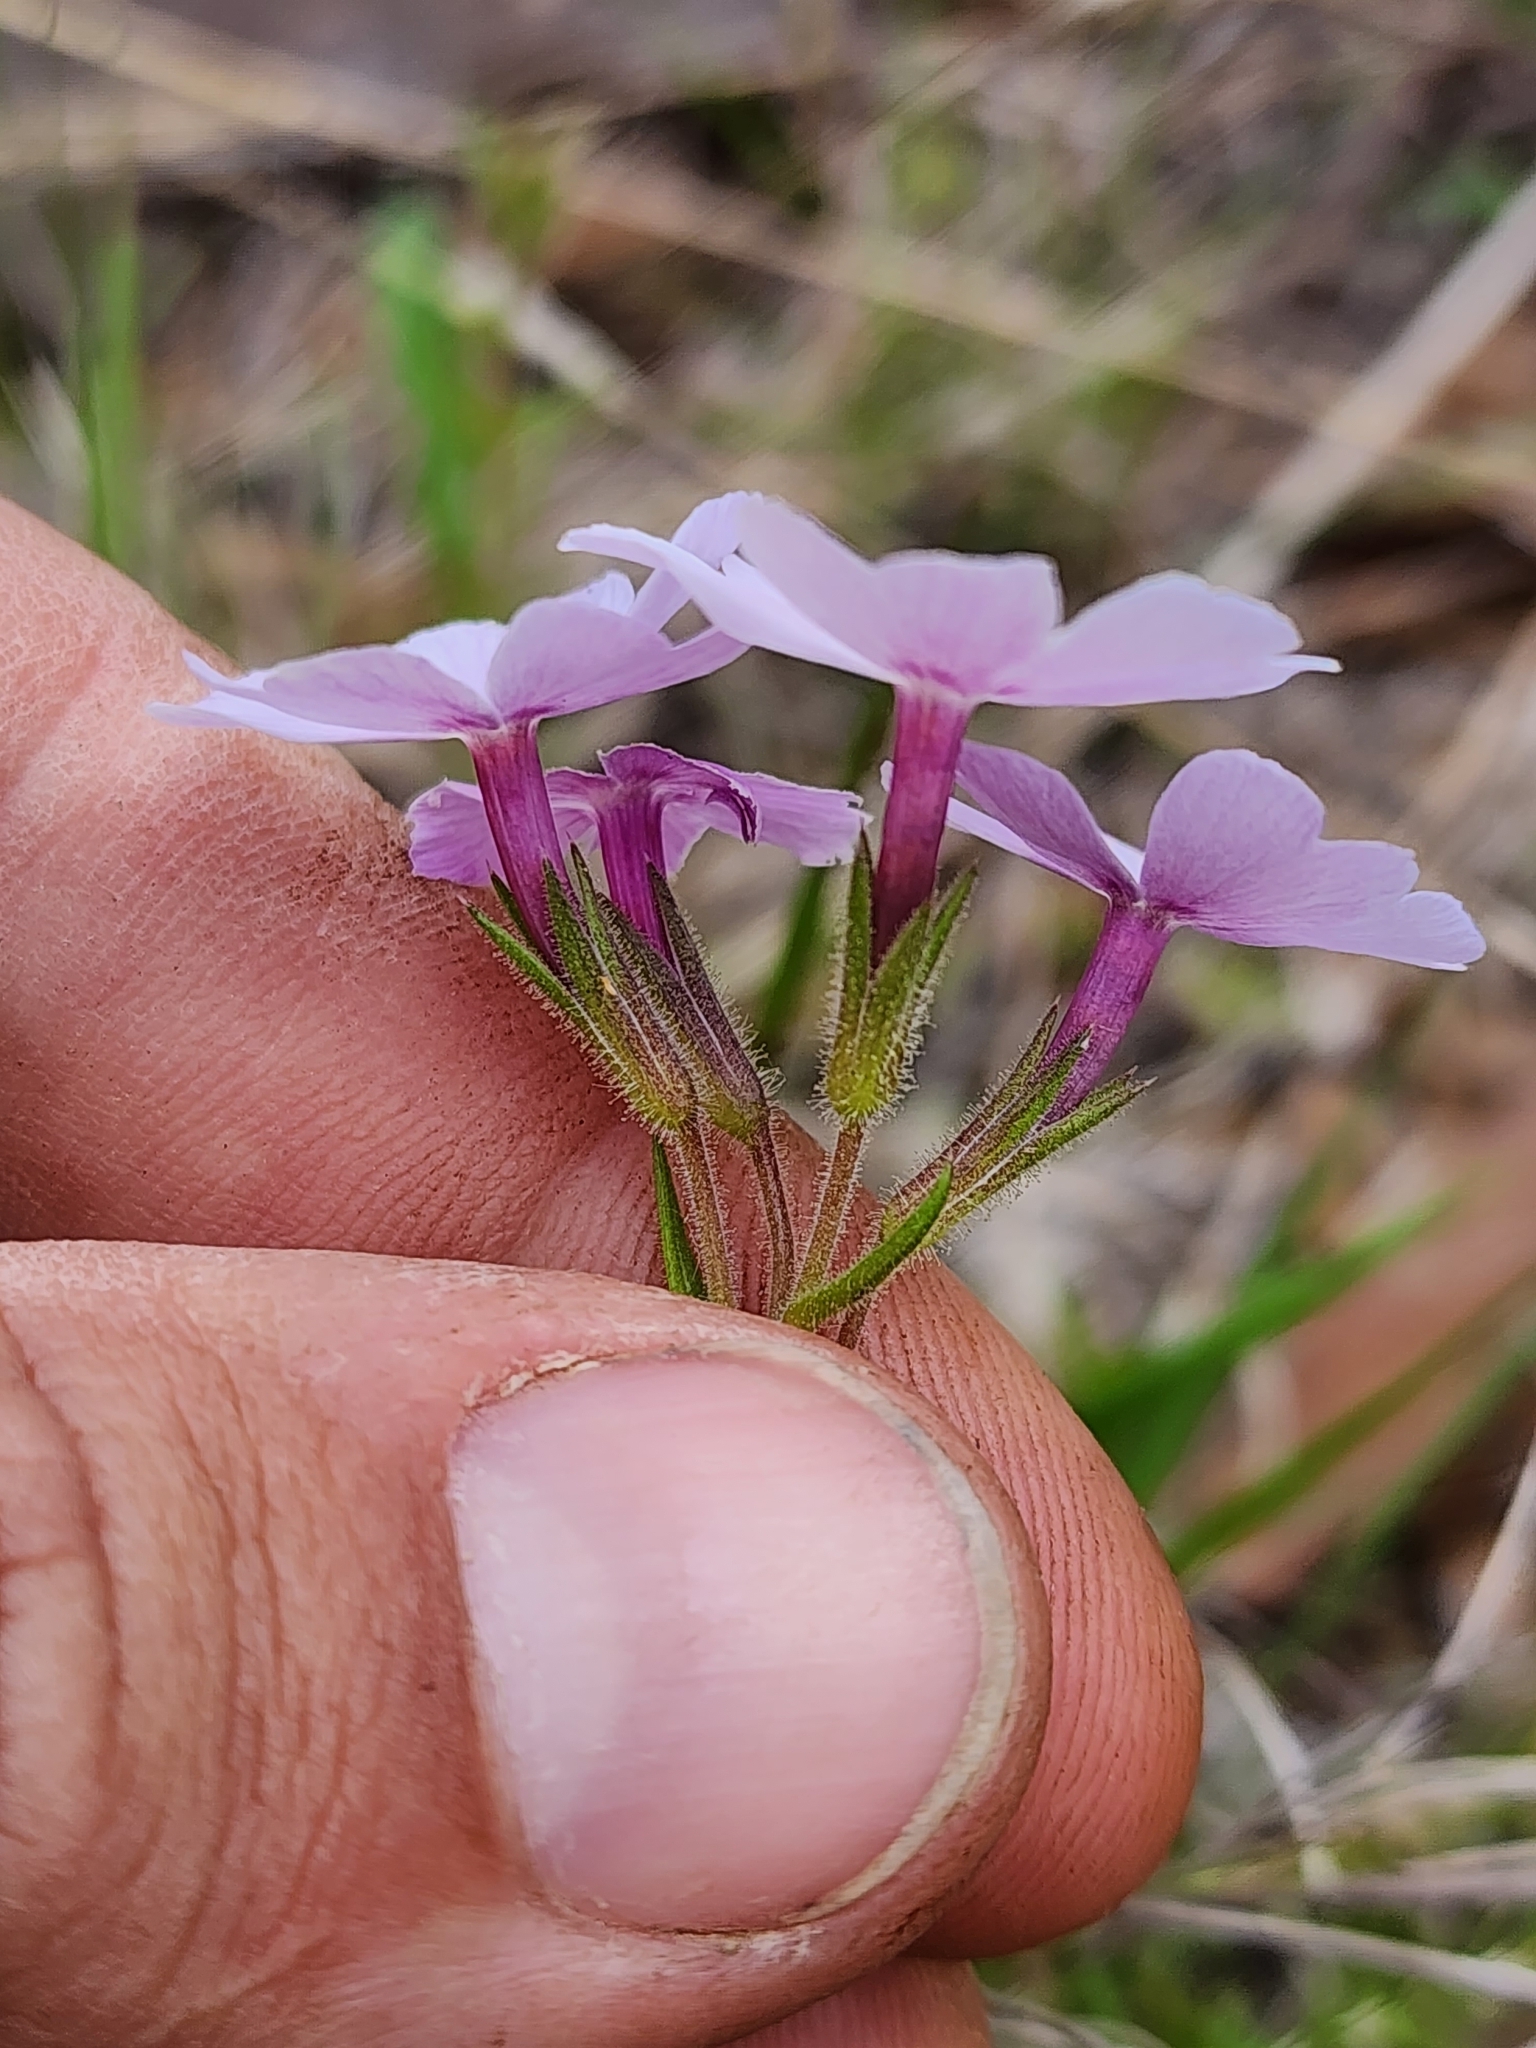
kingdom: Plantae
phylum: Tracheophyta
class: Magnoliopsida
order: Ericales
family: Polemoniaceae
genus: Phlox
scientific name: Phlox nivalis
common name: Trailing phlox
